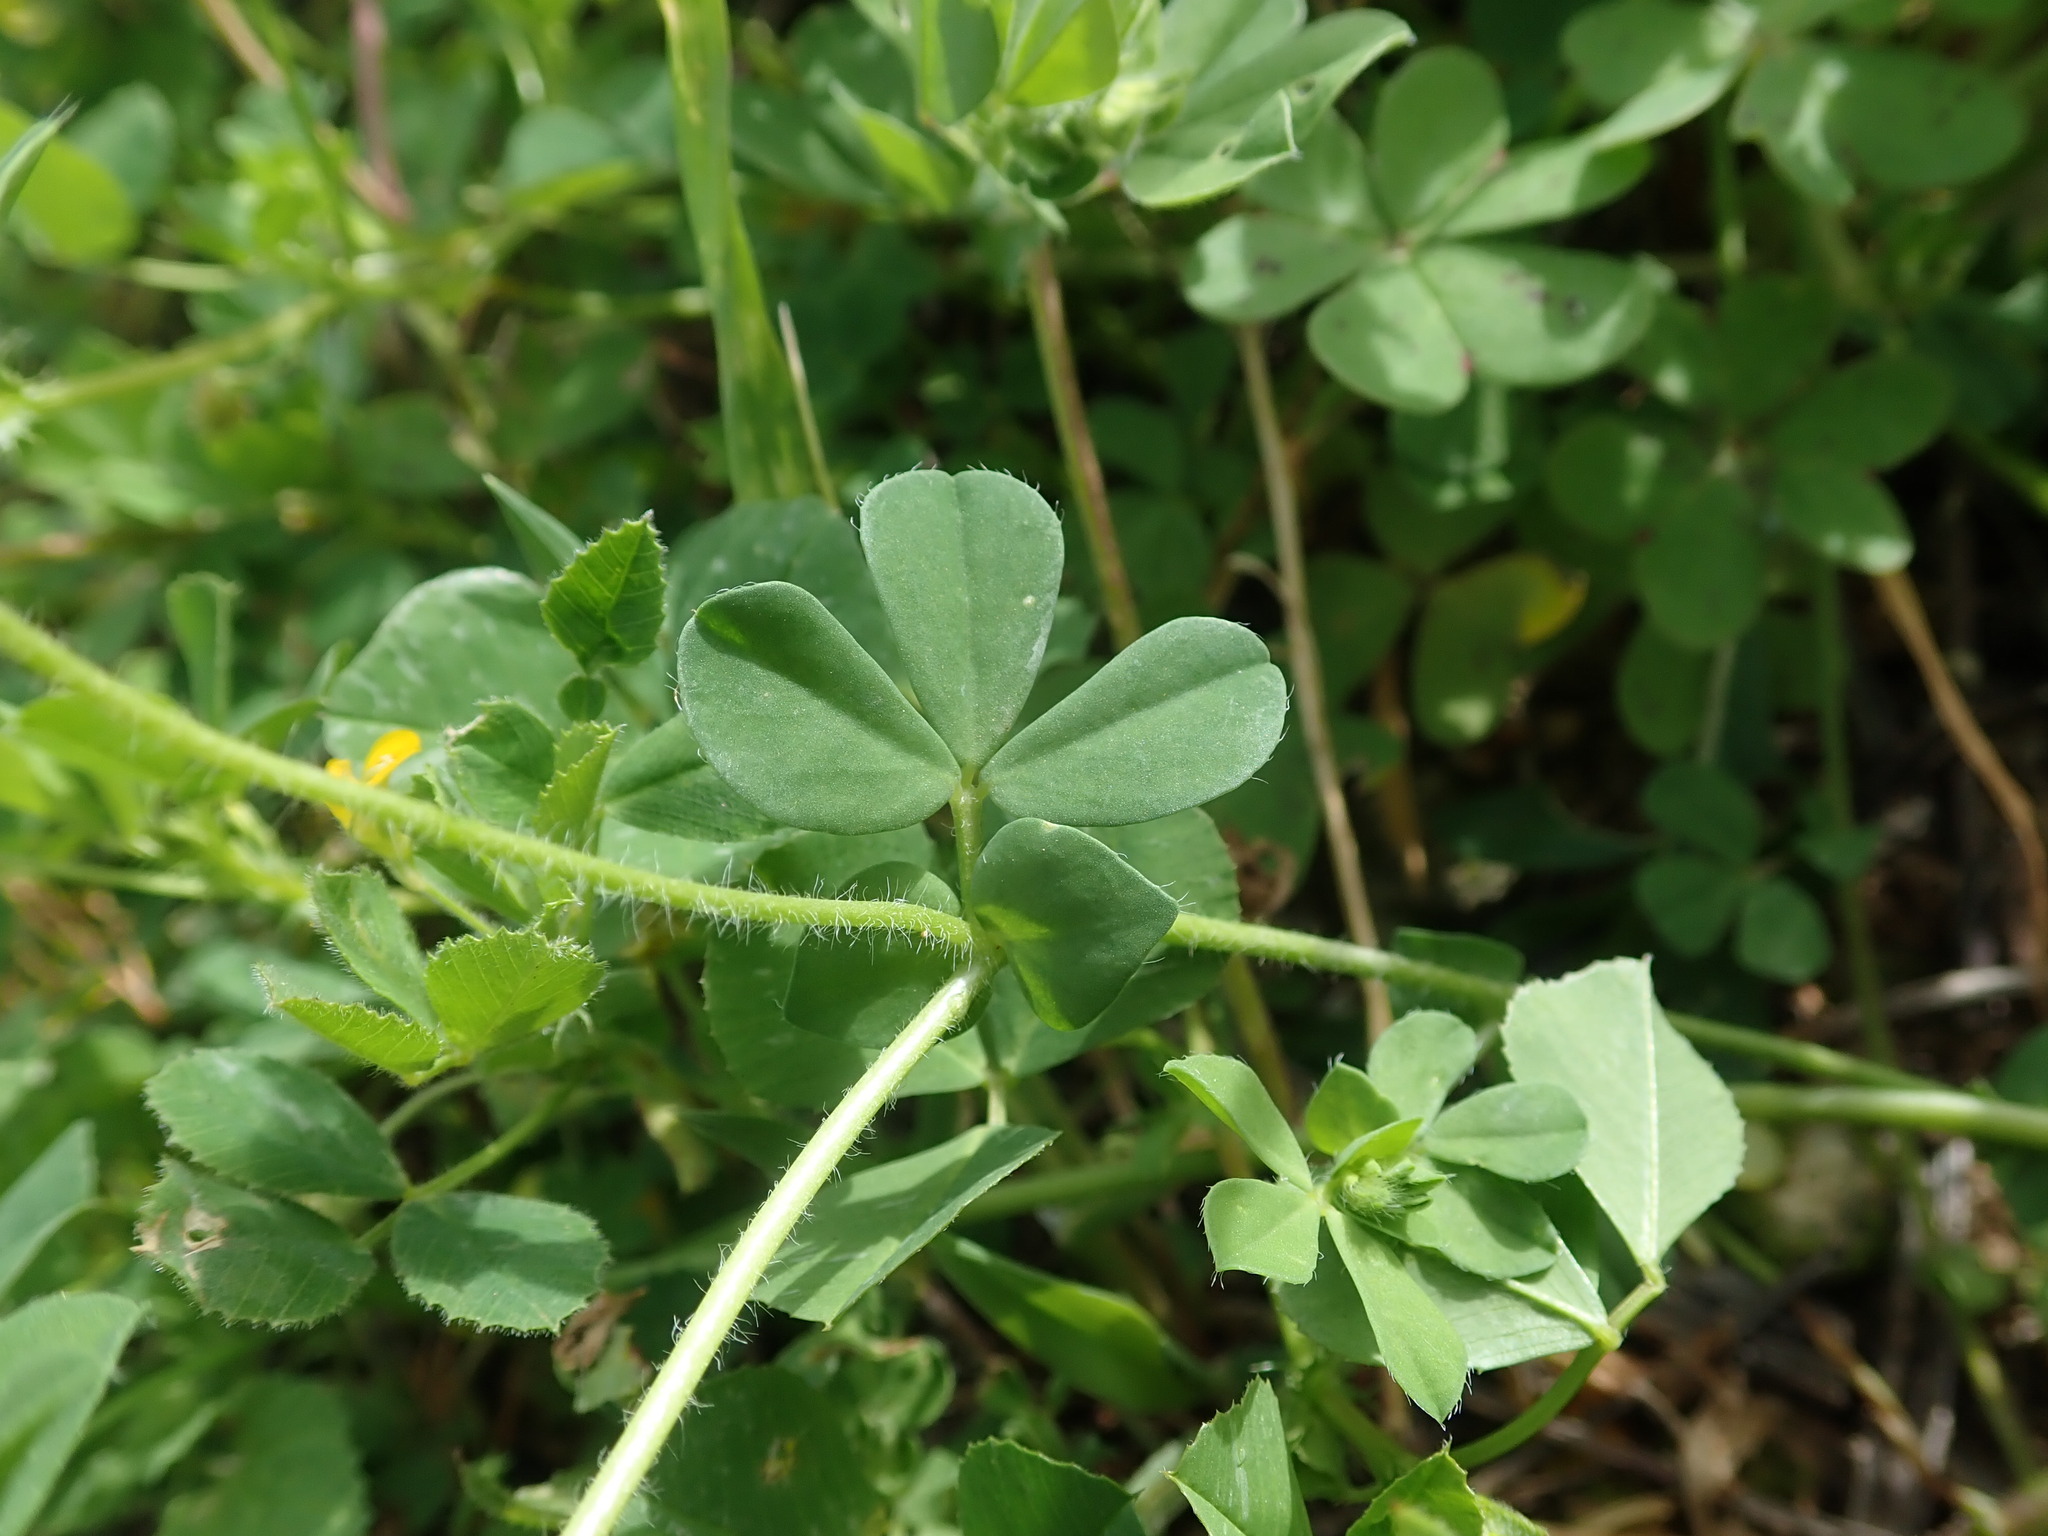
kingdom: Plantae
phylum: Tracheophyta
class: Magnoliopsida
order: Fabales
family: Fabaceae
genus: Lotus
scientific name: Lotus edulis
